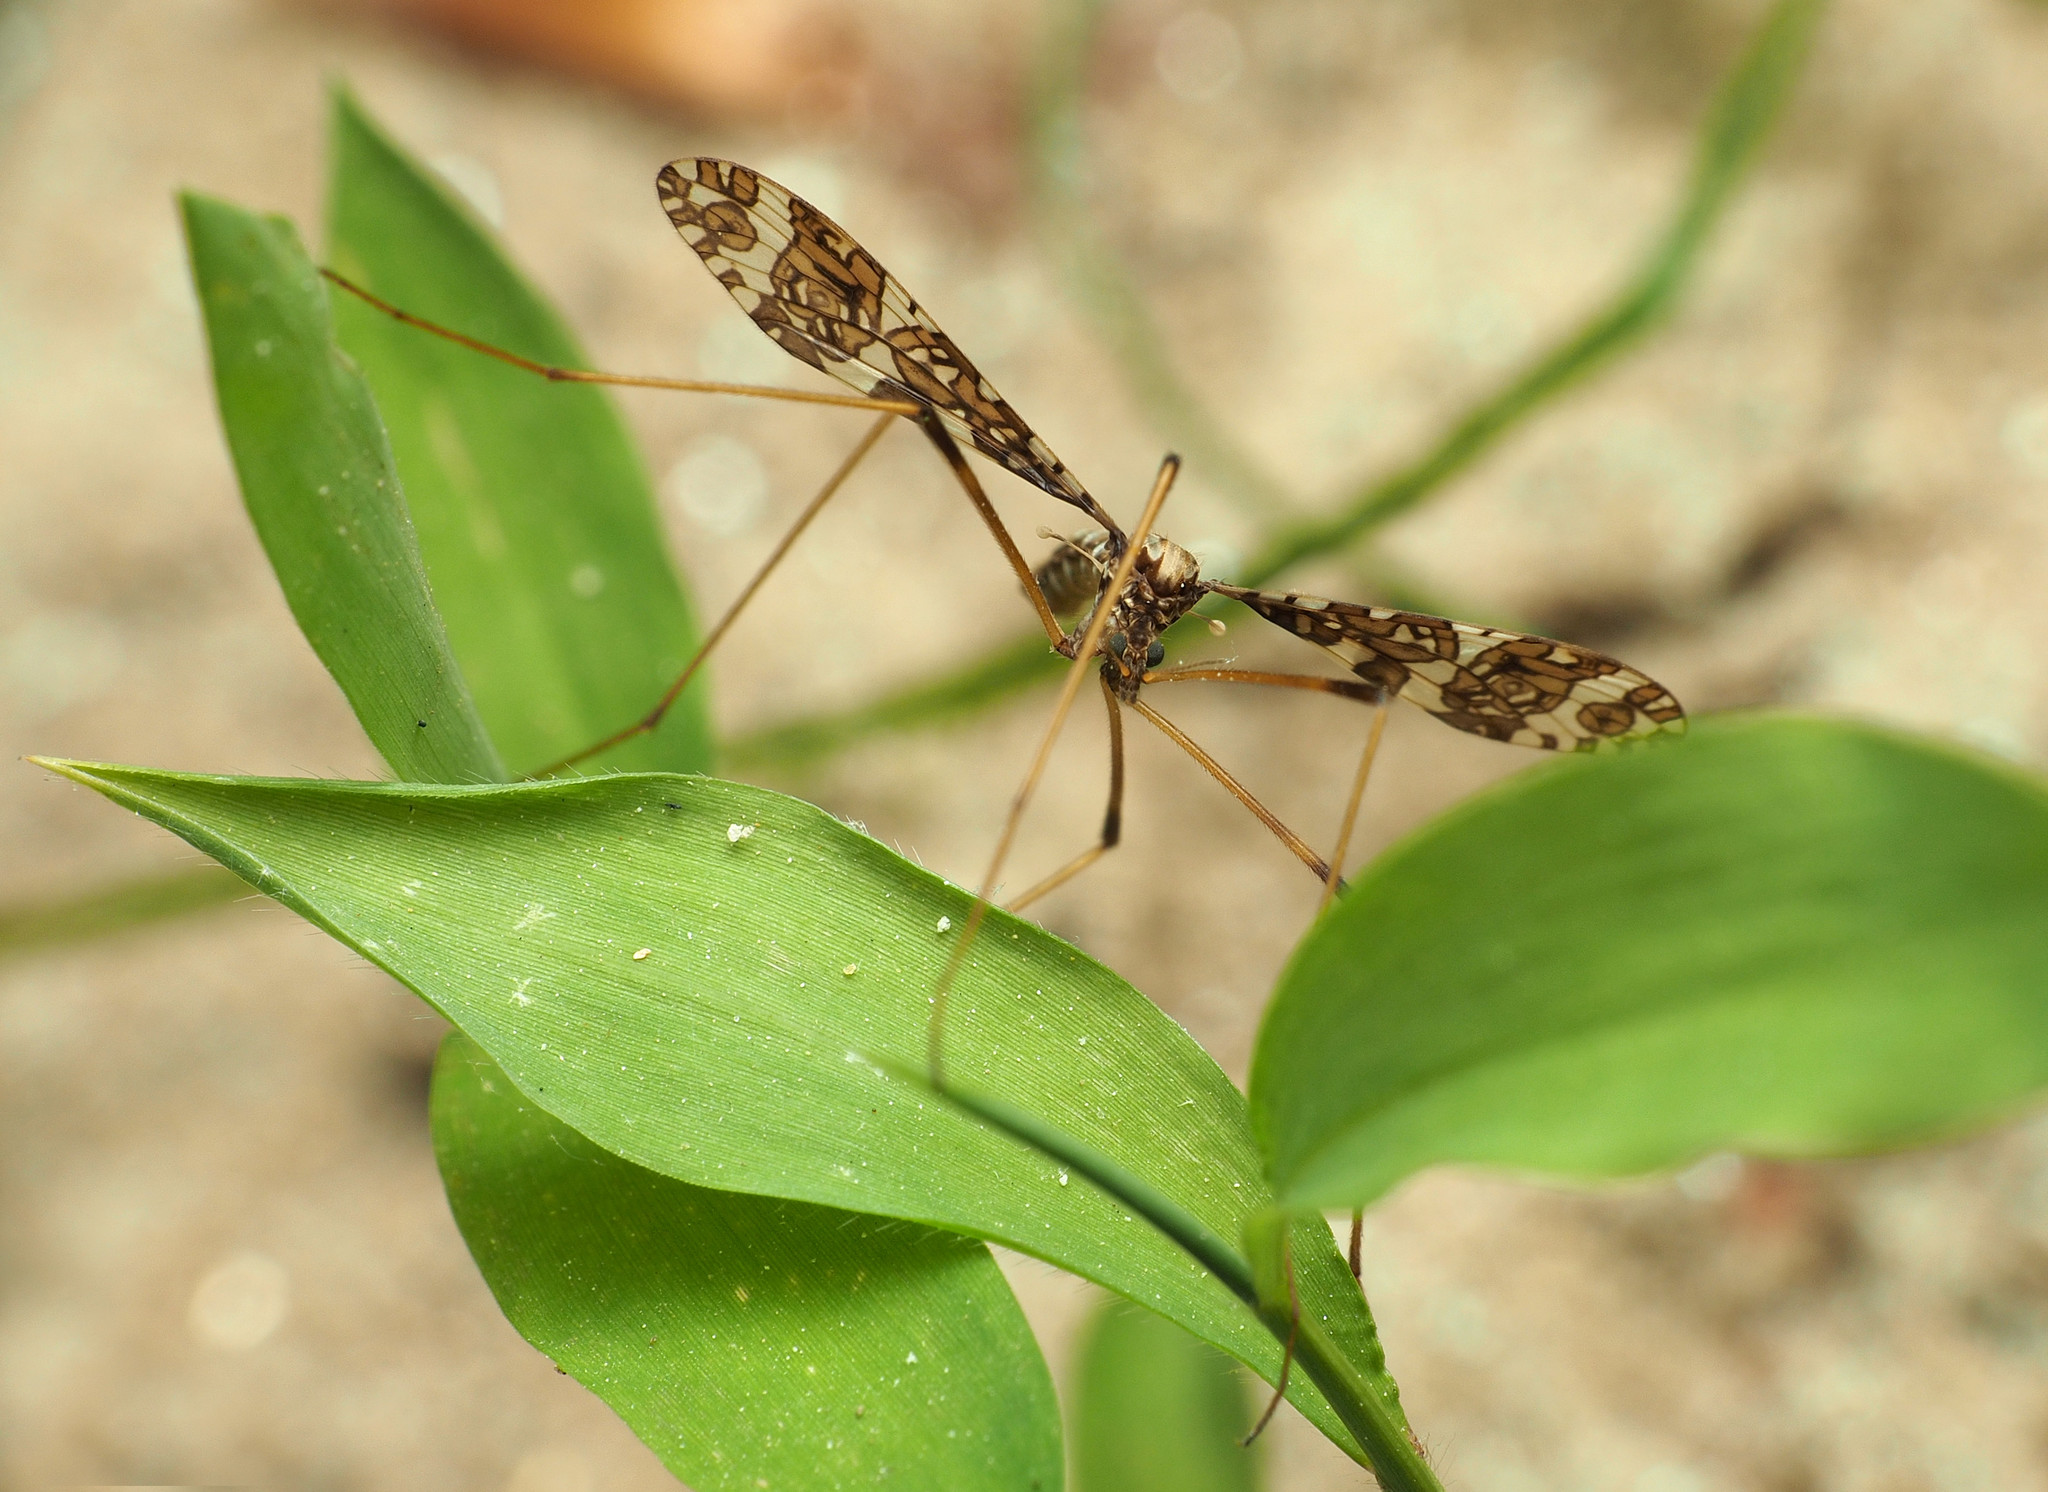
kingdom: Animalia
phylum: Arthropoda
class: Insecta
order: Diptera
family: Limoniidae
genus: Epiphragma
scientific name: Epiphragma fasciapenne
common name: Band-winged crane fly
